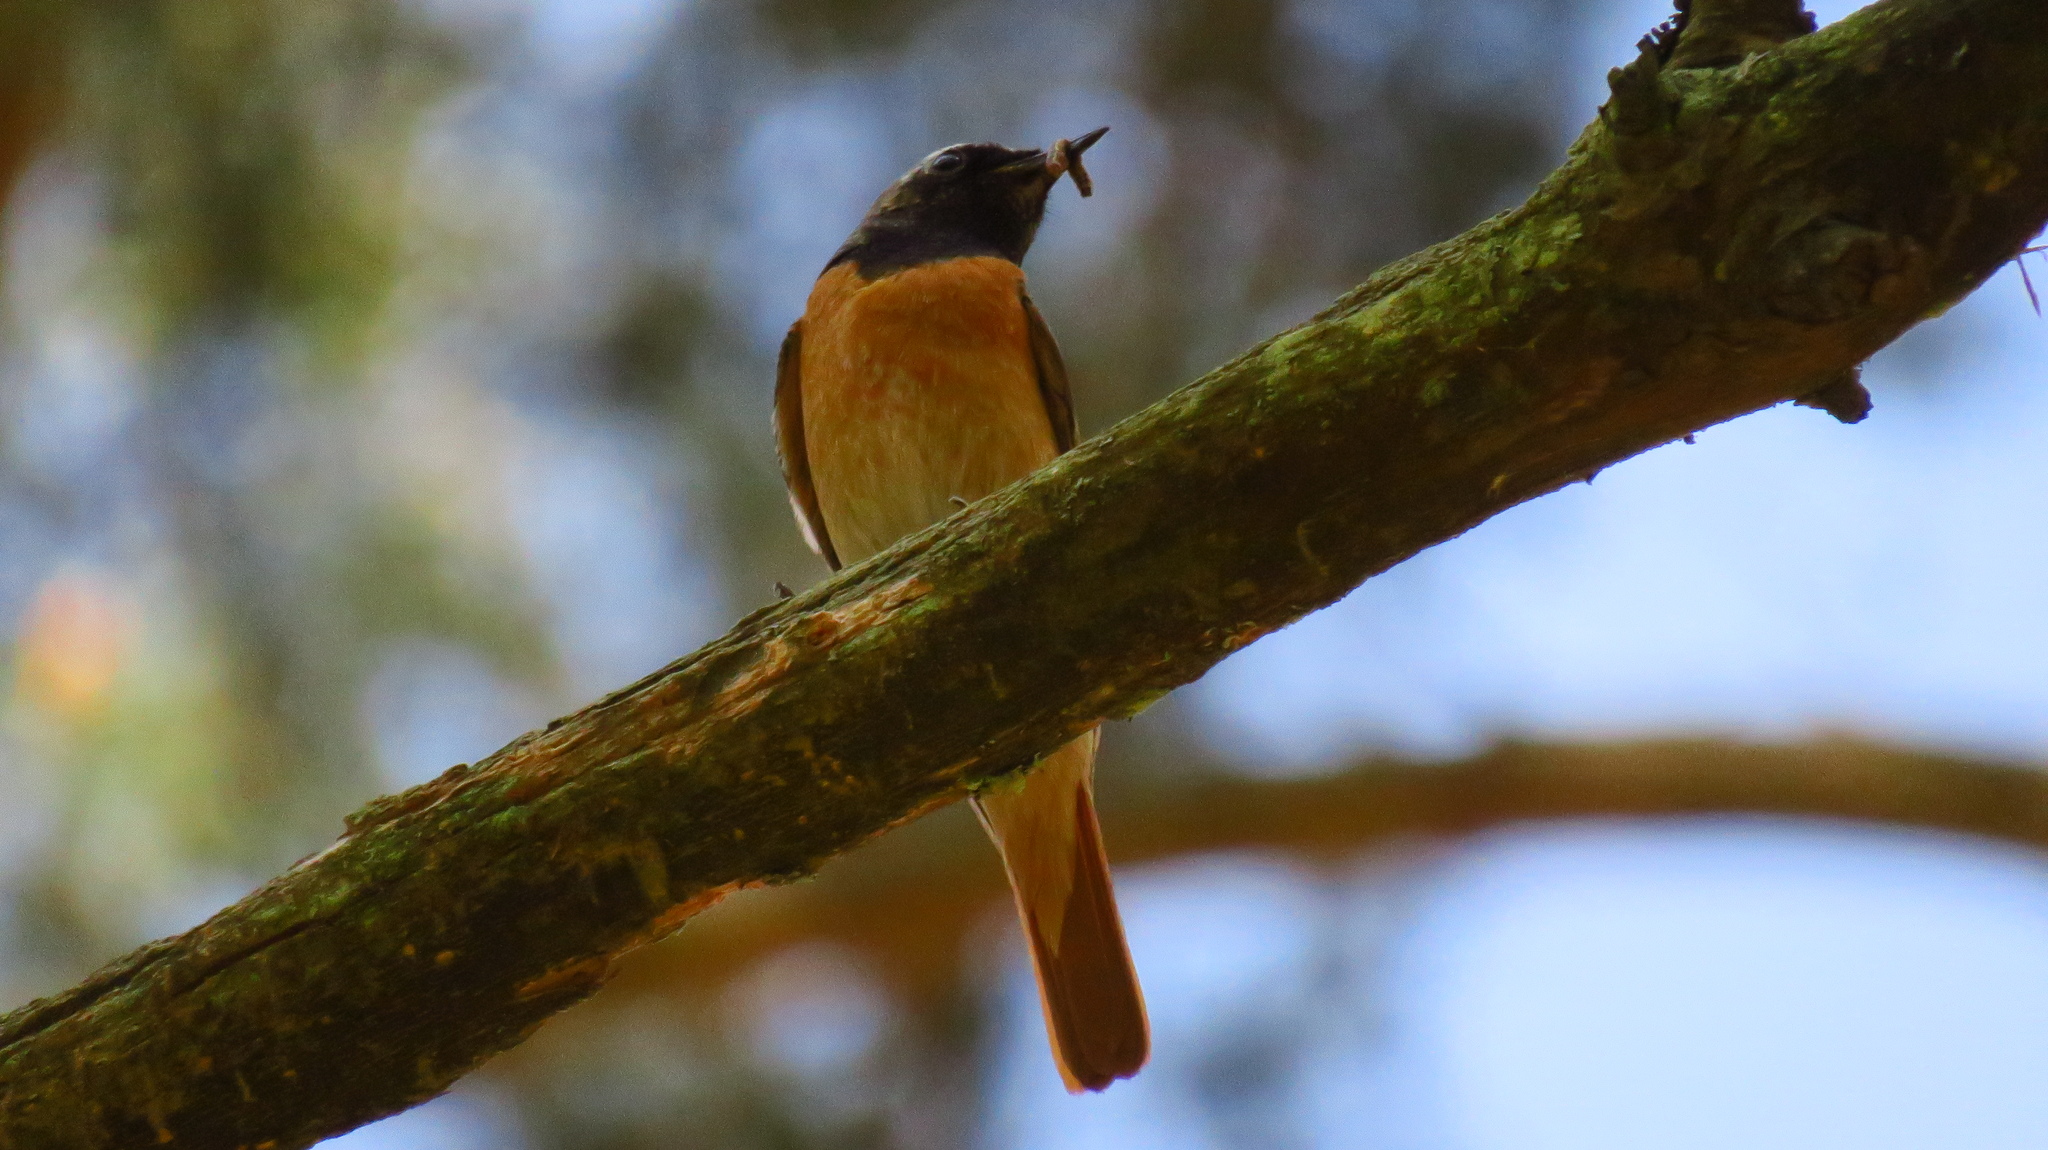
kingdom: Animalia
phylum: Chordata
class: Aves
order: Passeriformes
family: Muscicapidae
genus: Phoenicurus
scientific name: Phoenicurus phoenicurus
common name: Common redstart
